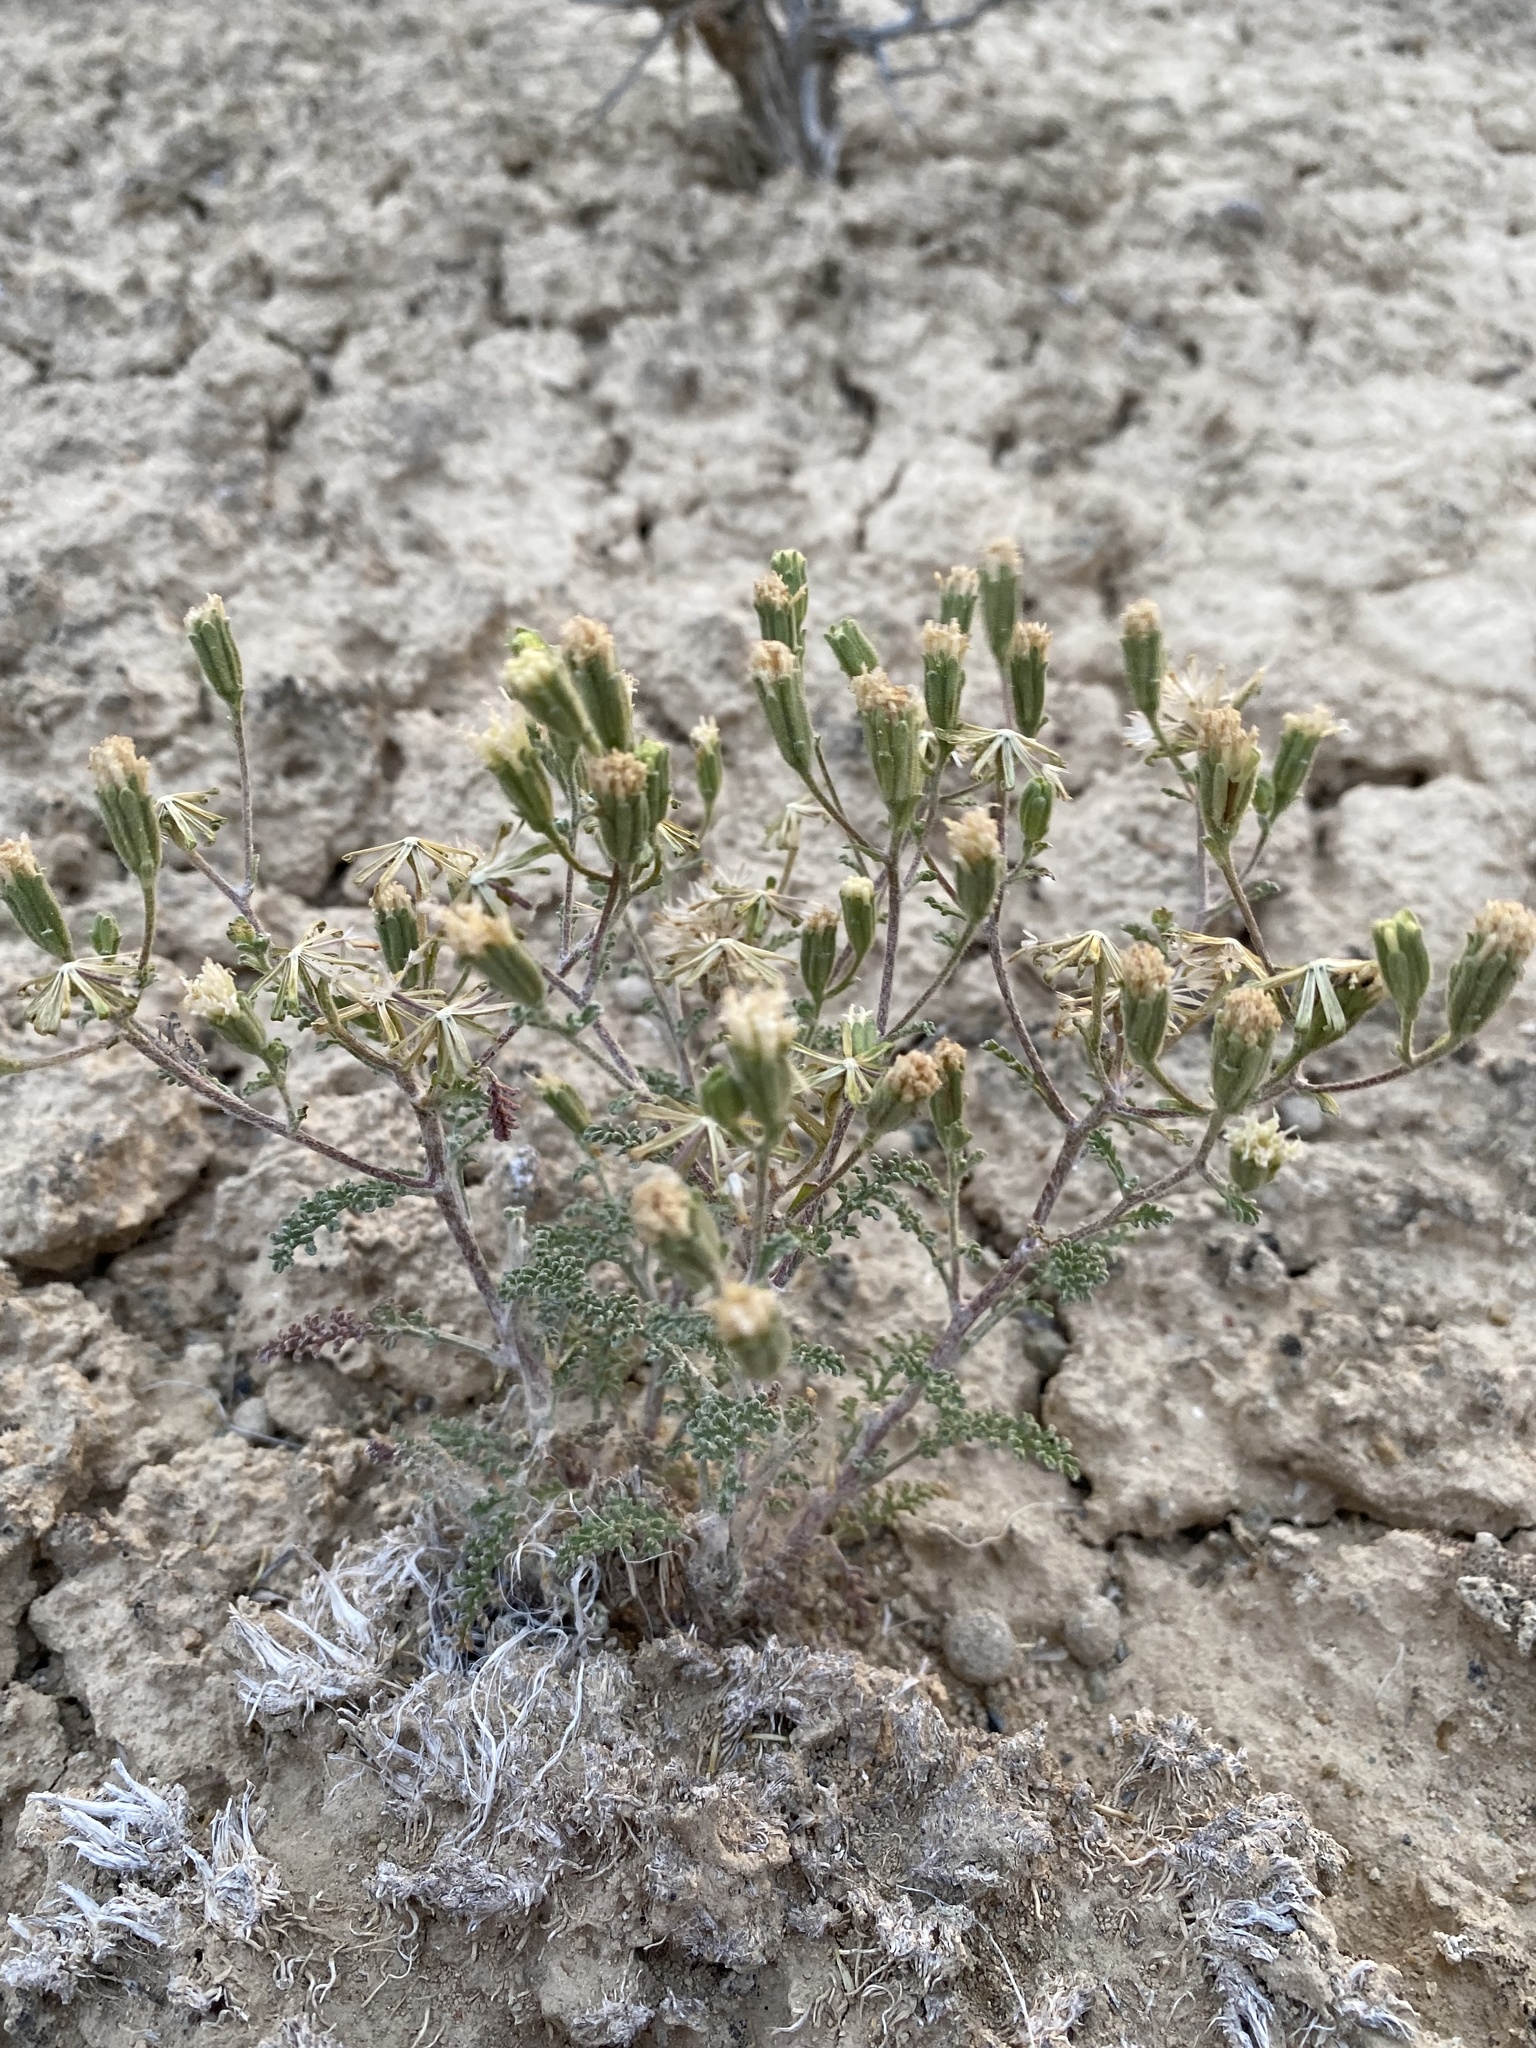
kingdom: Plantae
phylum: Tracheophyta
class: Magnoliopsida
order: Asterales
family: Asteraceae
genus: Chaenactis
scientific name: Chaenactis douglasii
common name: Hoary pincushion
